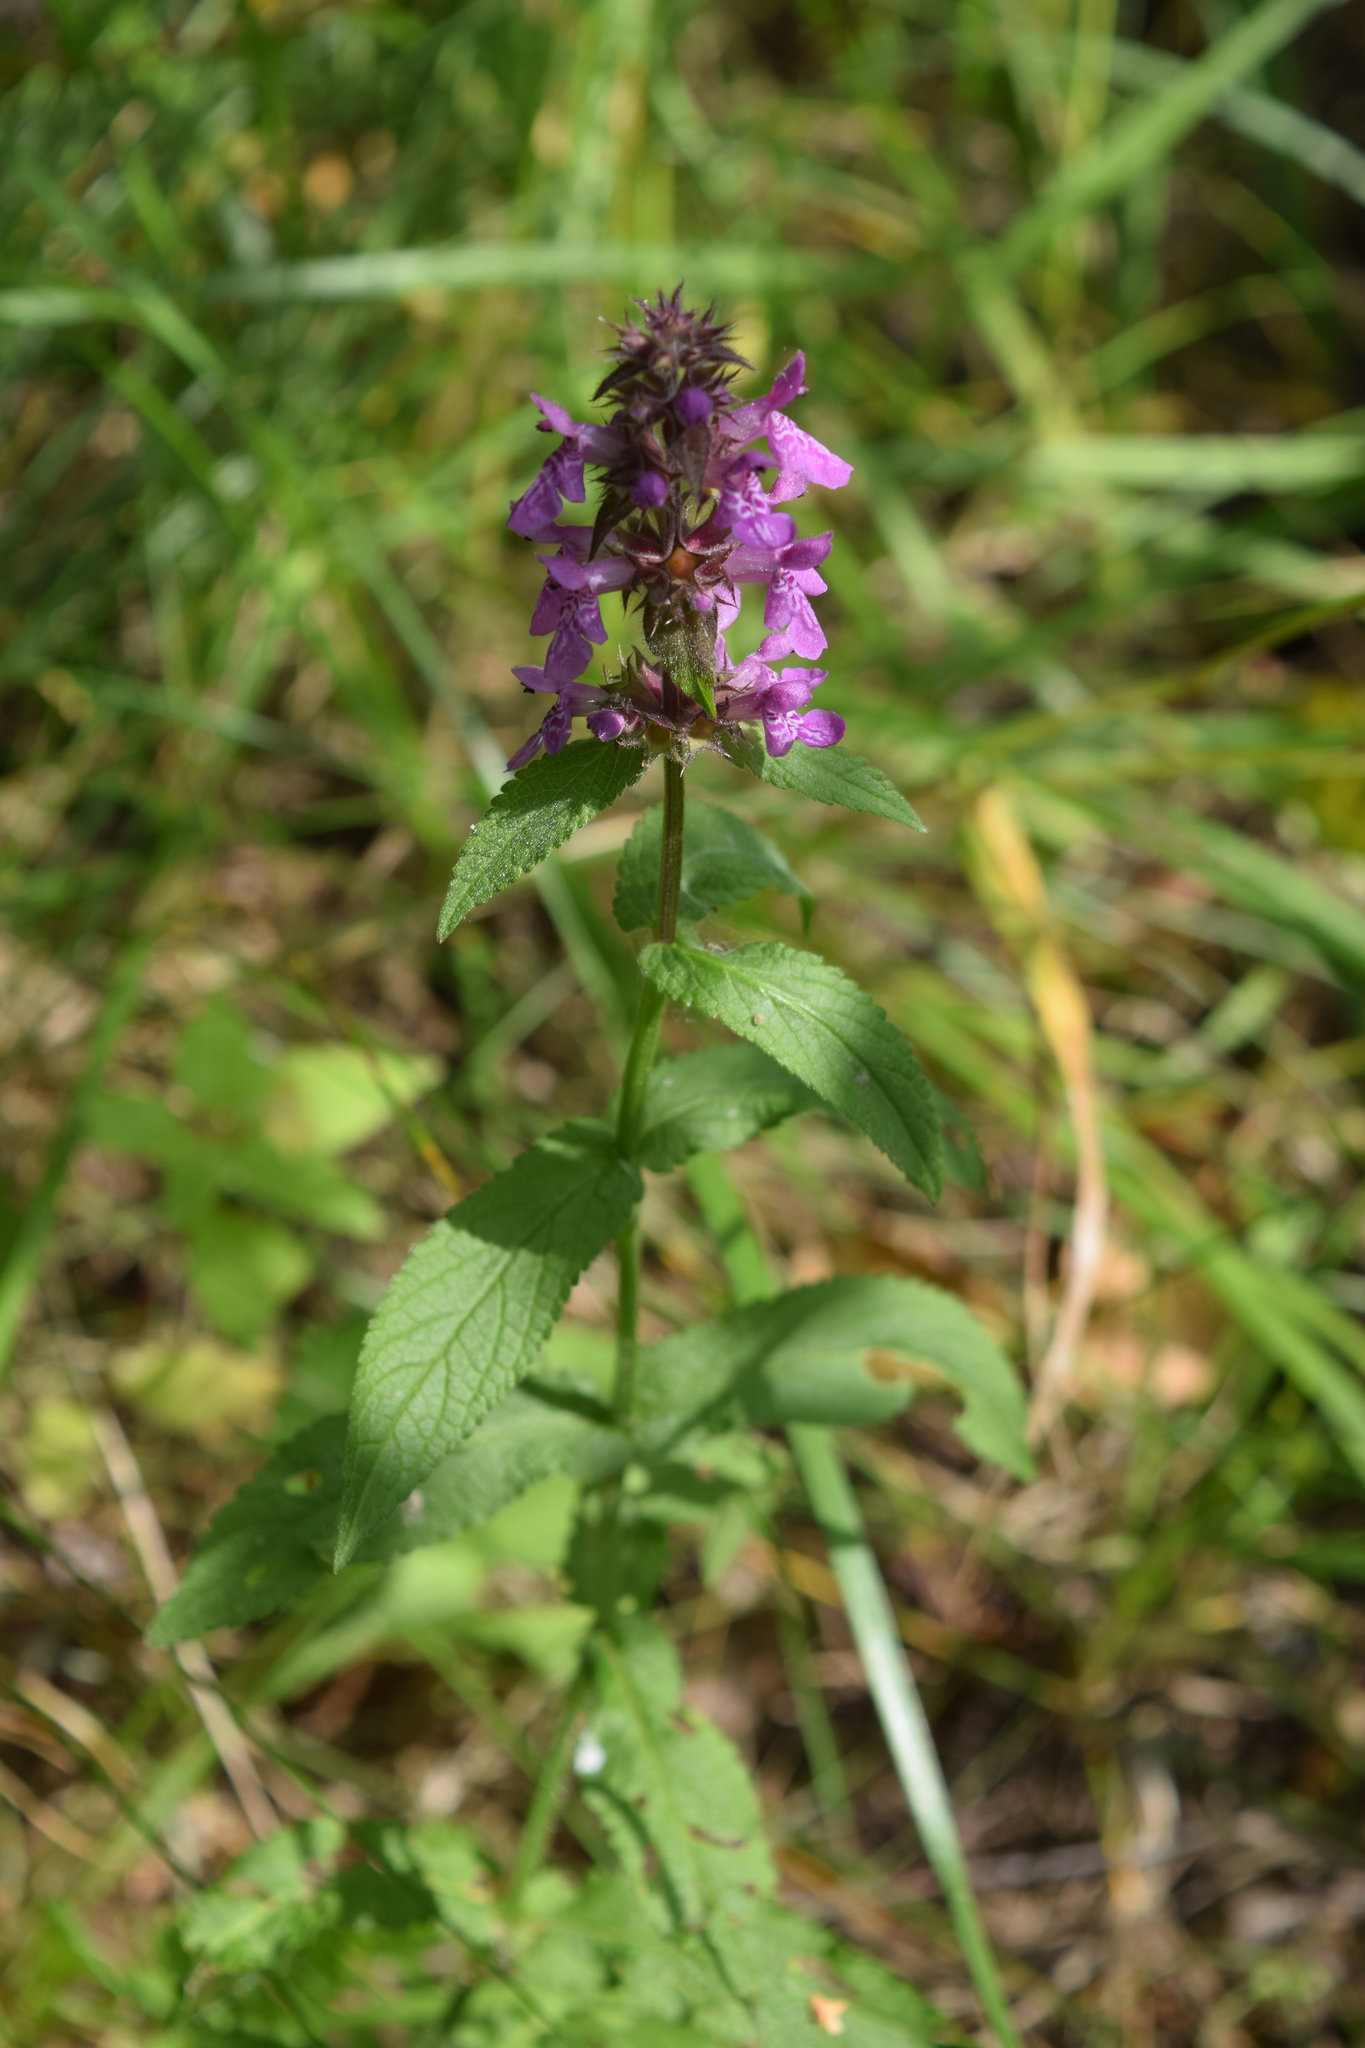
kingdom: Plantae
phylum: Tracheophyta
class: Magnoliopsida
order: Lamiales
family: Lamiaceae
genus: Stachys
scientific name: Stachys palustris
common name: Marsh woundwort
